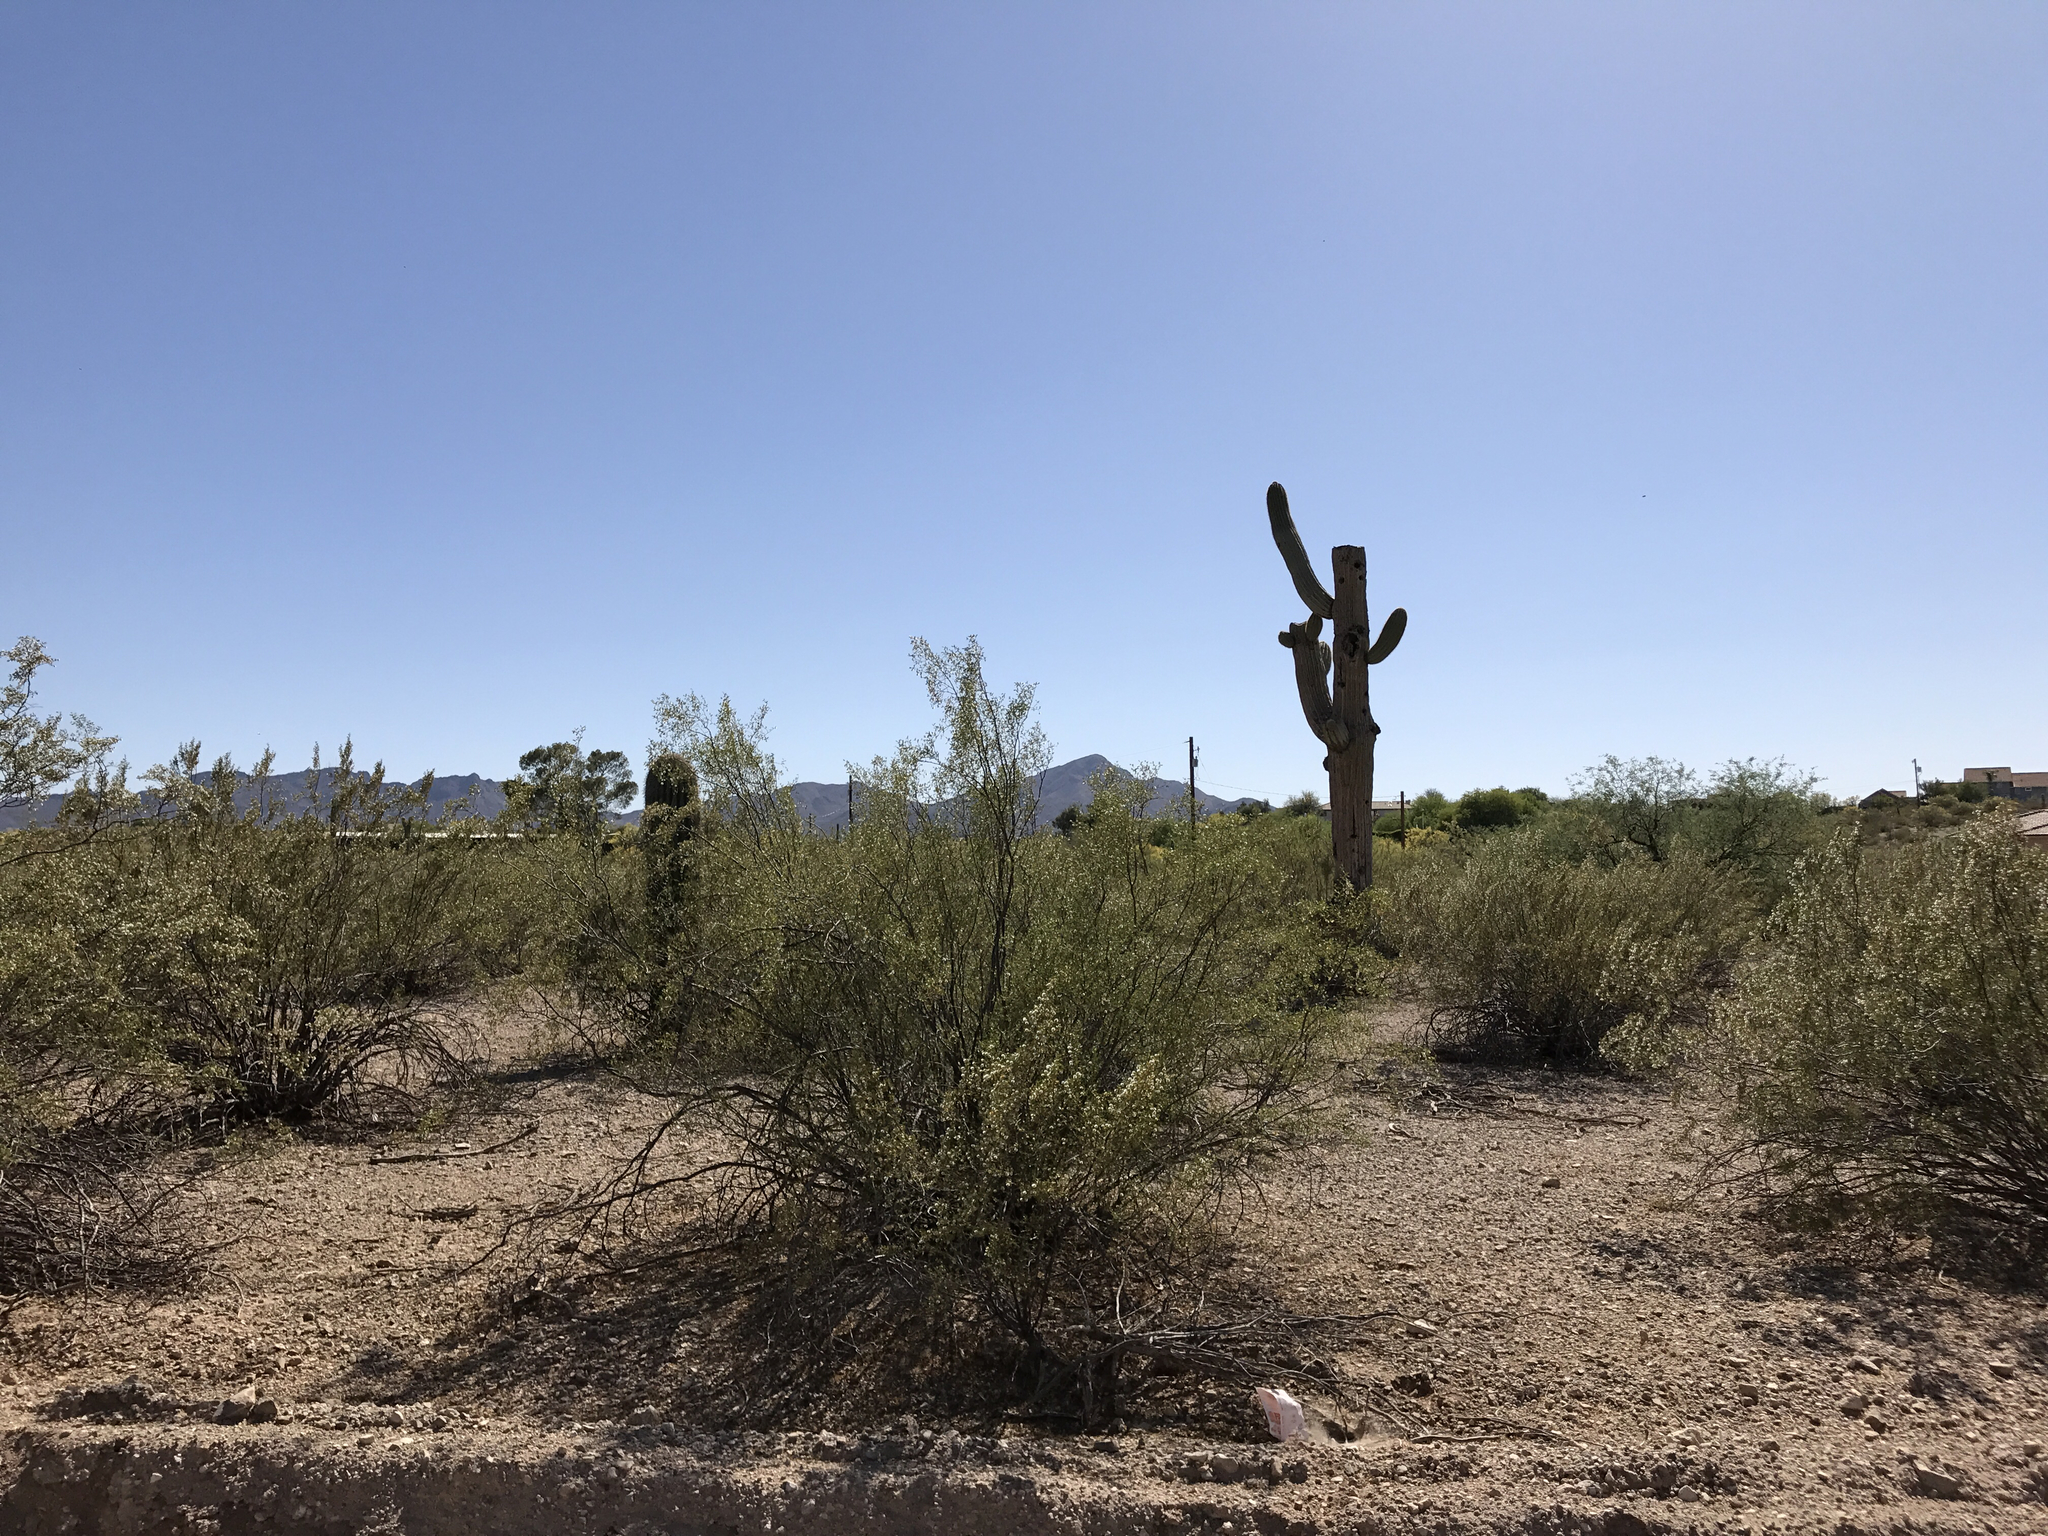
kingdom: Plantae
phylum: Tracheophyta
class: Magnoliopsida
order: Caryophyllales
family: Cactaceae
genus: Carnegiea
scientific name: Carnegiea gigantea
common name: Saguaro
